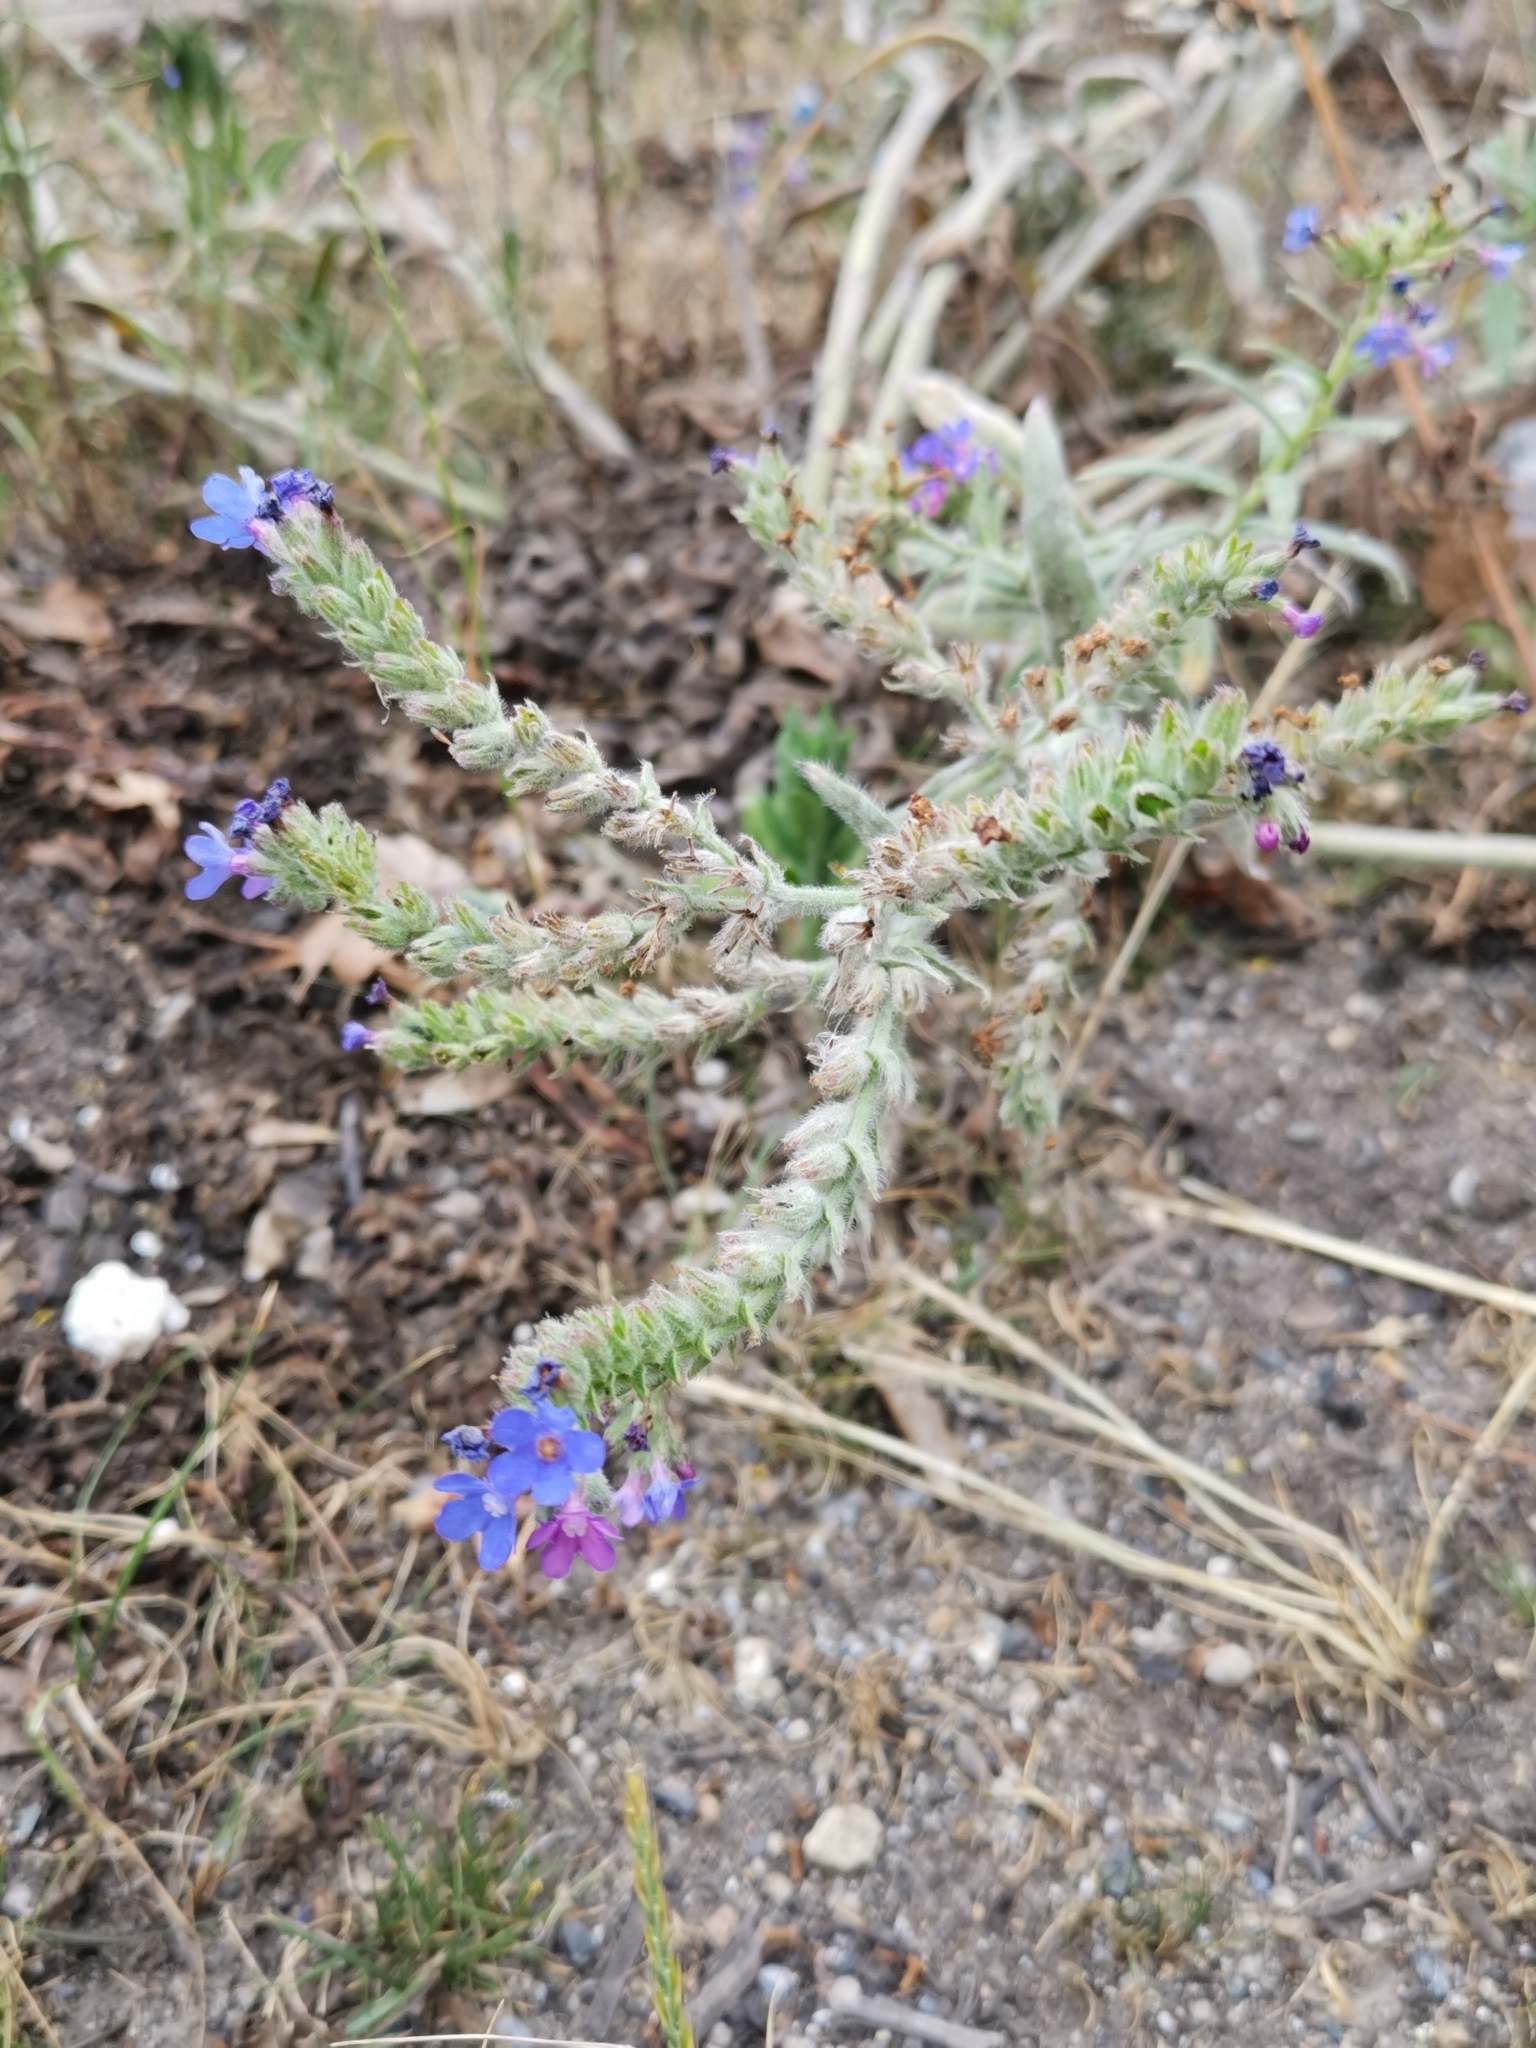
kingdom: Plantae
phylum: Tracheophyta
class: Magnoliopsida
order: Boraginales
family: Boraginaceae
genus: Anchusa
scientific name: Anchusa officinalis
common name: Alkanet
